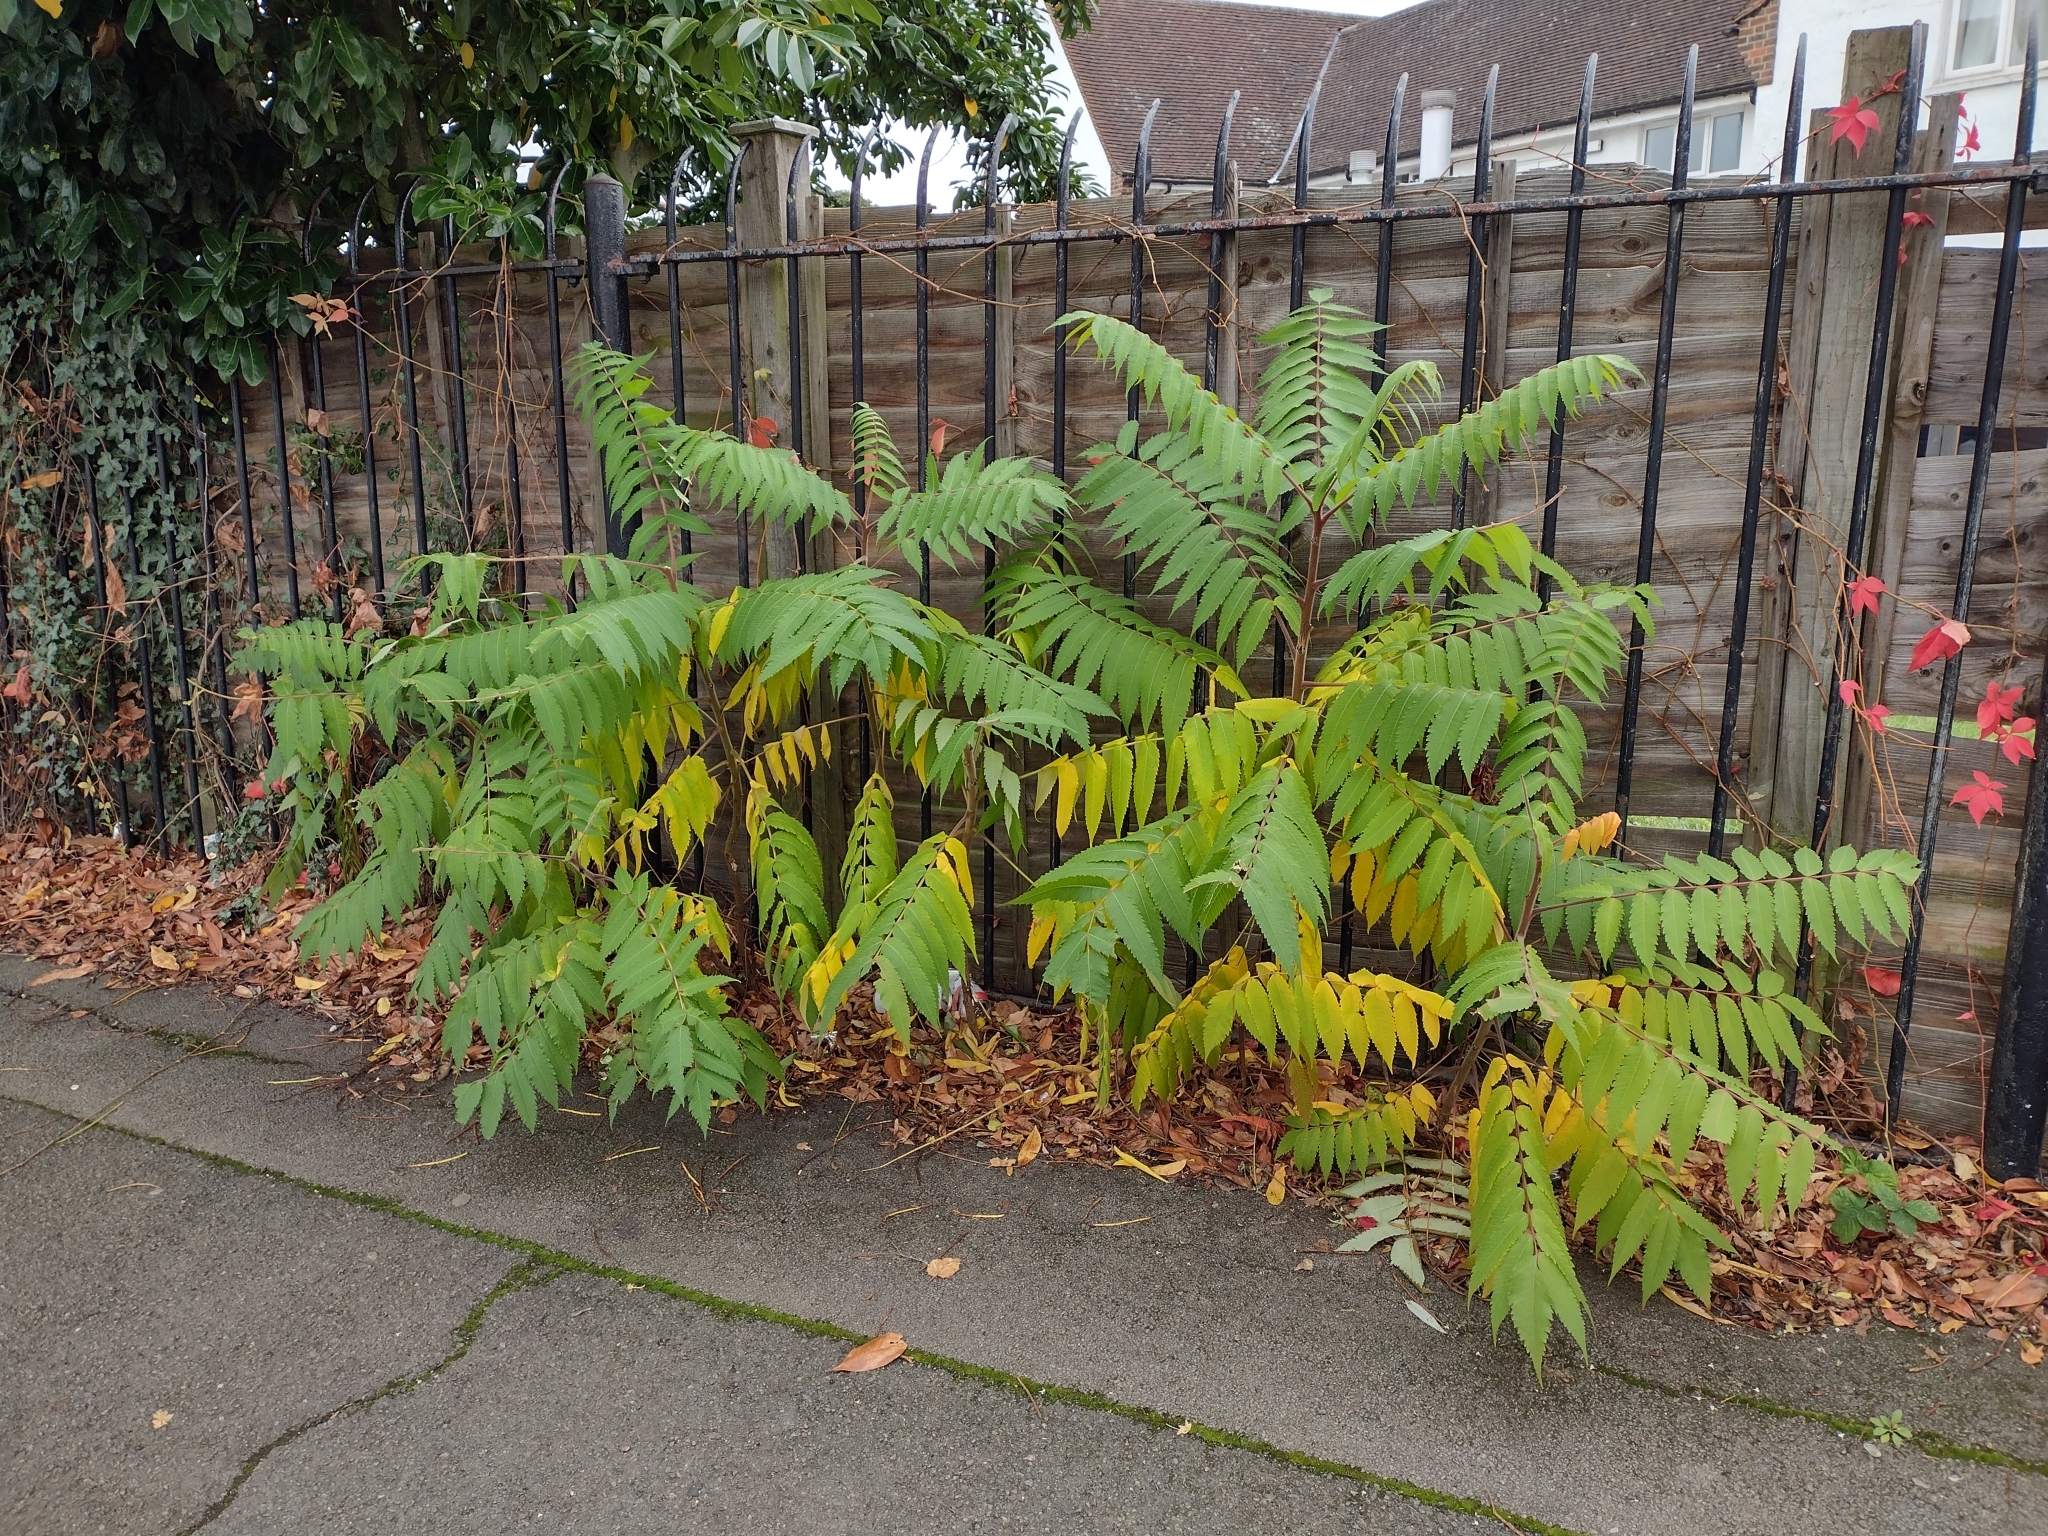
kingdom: Plantae
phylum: Tracheophyta
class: Magnoliopsida
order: Sapindales
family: Anacardiaceae
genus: Rhus
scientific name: Rhus typhina
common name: Staghorn sumac
